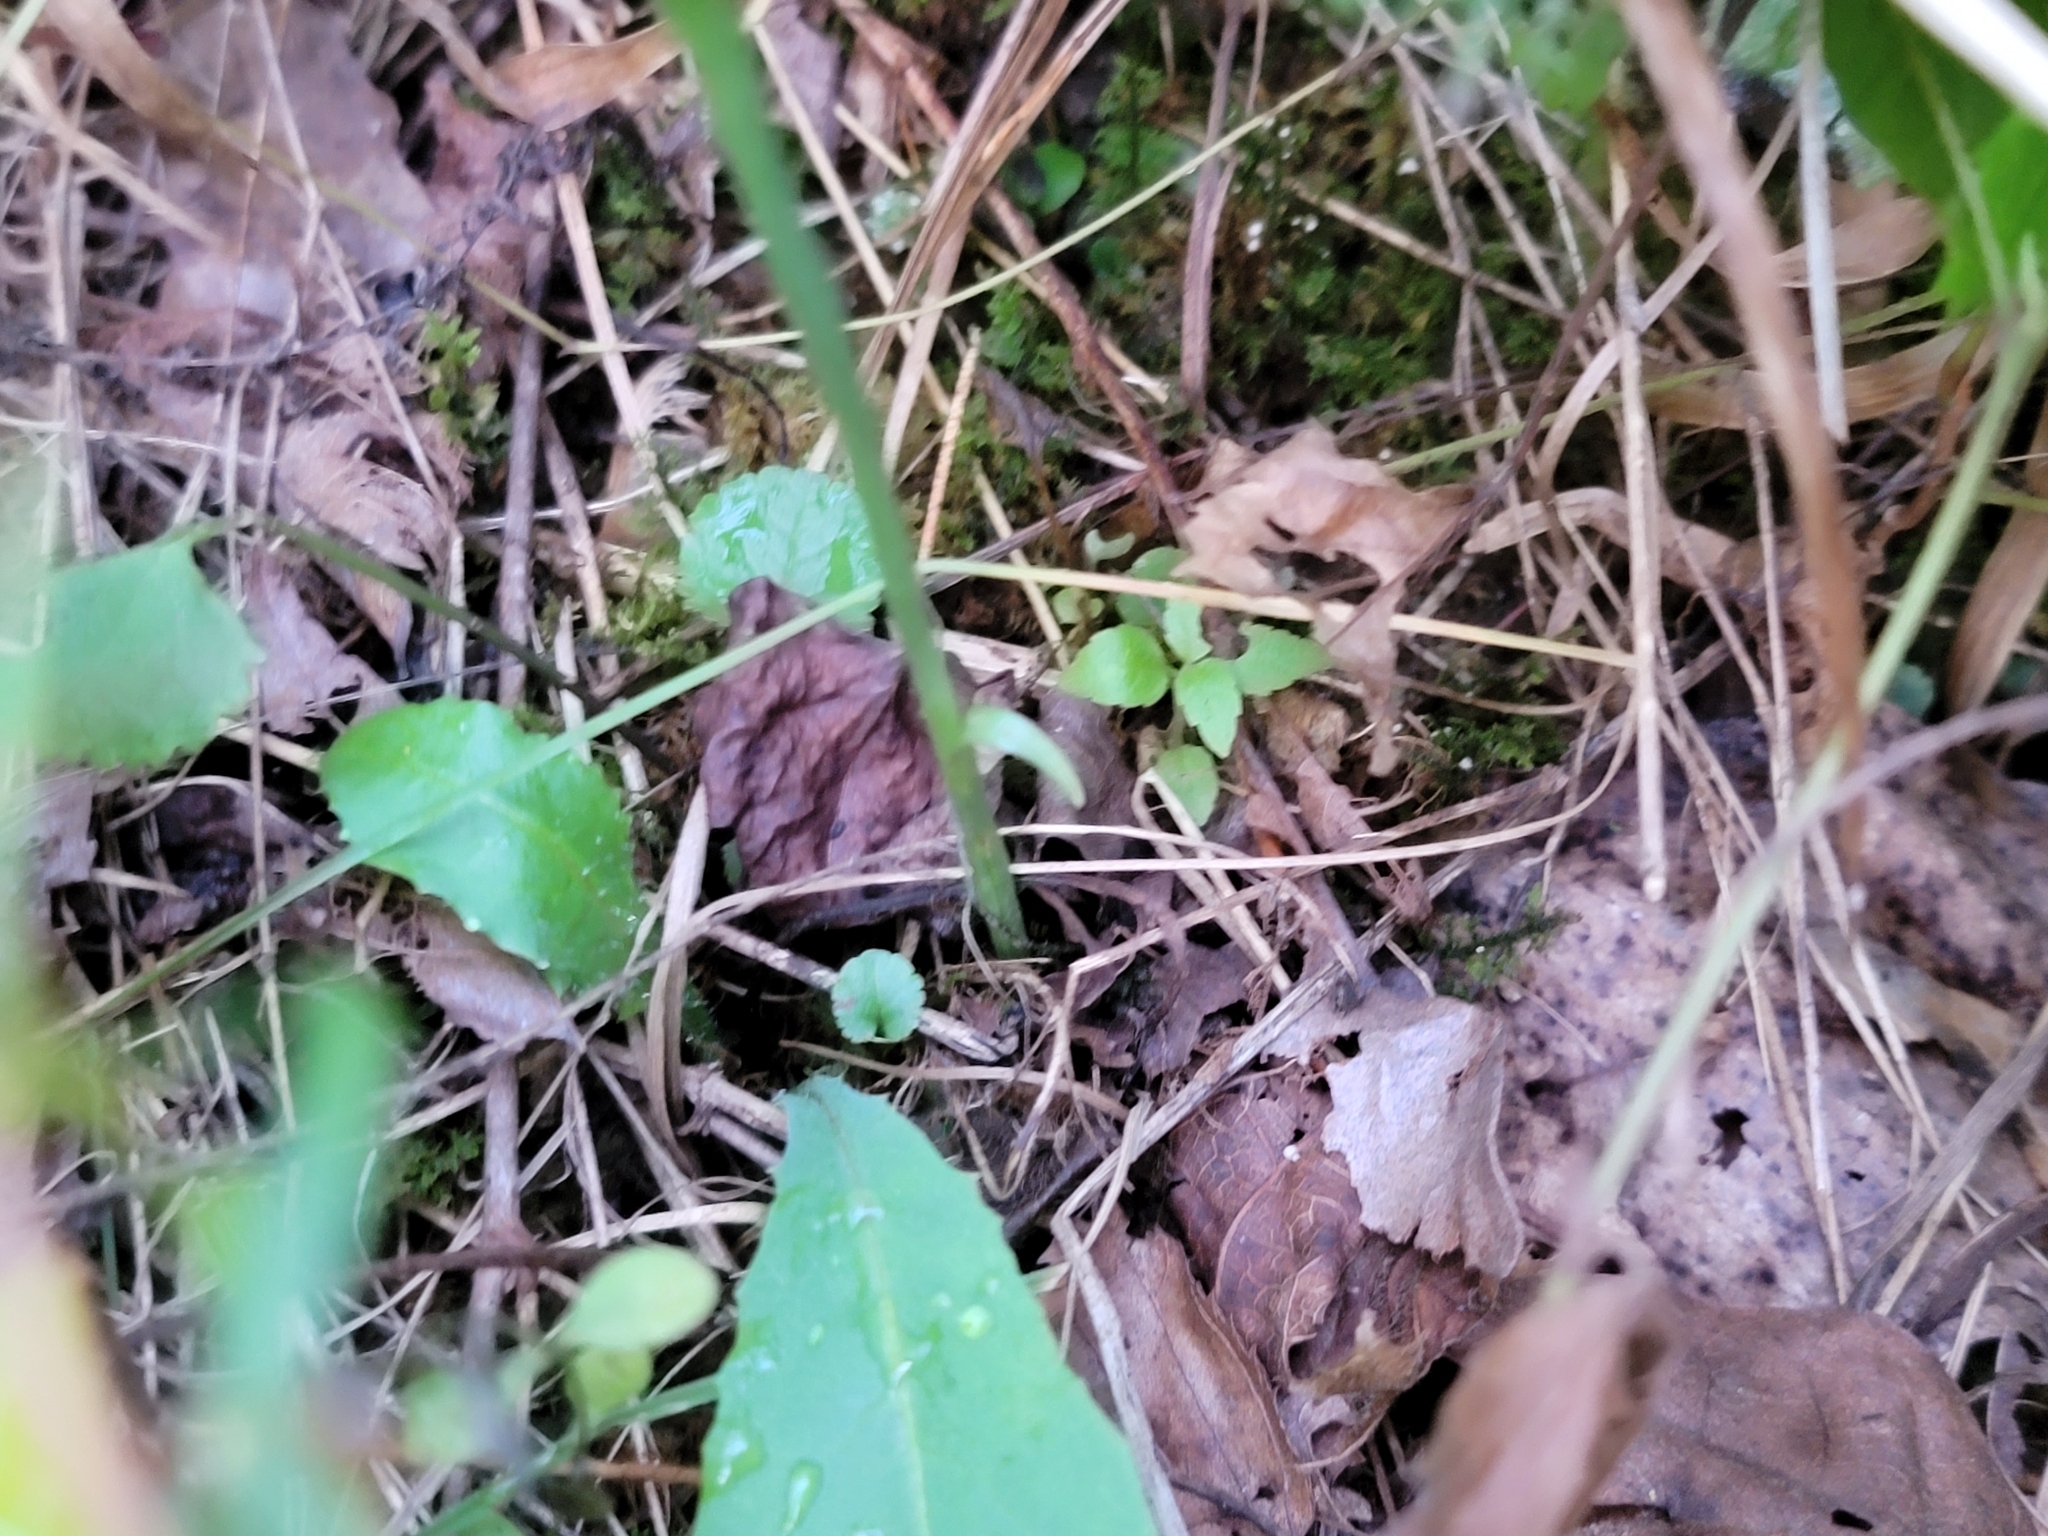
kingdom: Plantae
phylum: Tracheophyta
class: Liliopsida
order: Asparagales
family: Orchidaceae
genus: Spiranthes
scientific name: Spiranthes cernua
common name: Dropping ladies'-tresses
